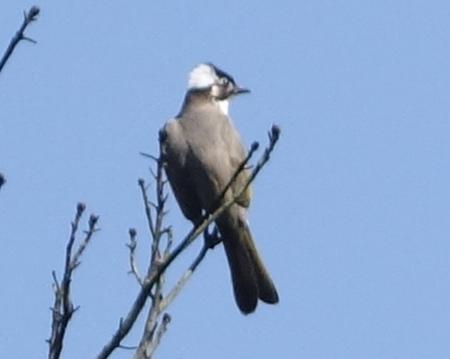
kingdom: Animalia
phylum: Chordata
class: Aves
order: Passeriformes
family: Pycnonotidae
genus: Pycnonotus
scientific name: Pycnonotus sinensis
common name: Light-vented bulbul
